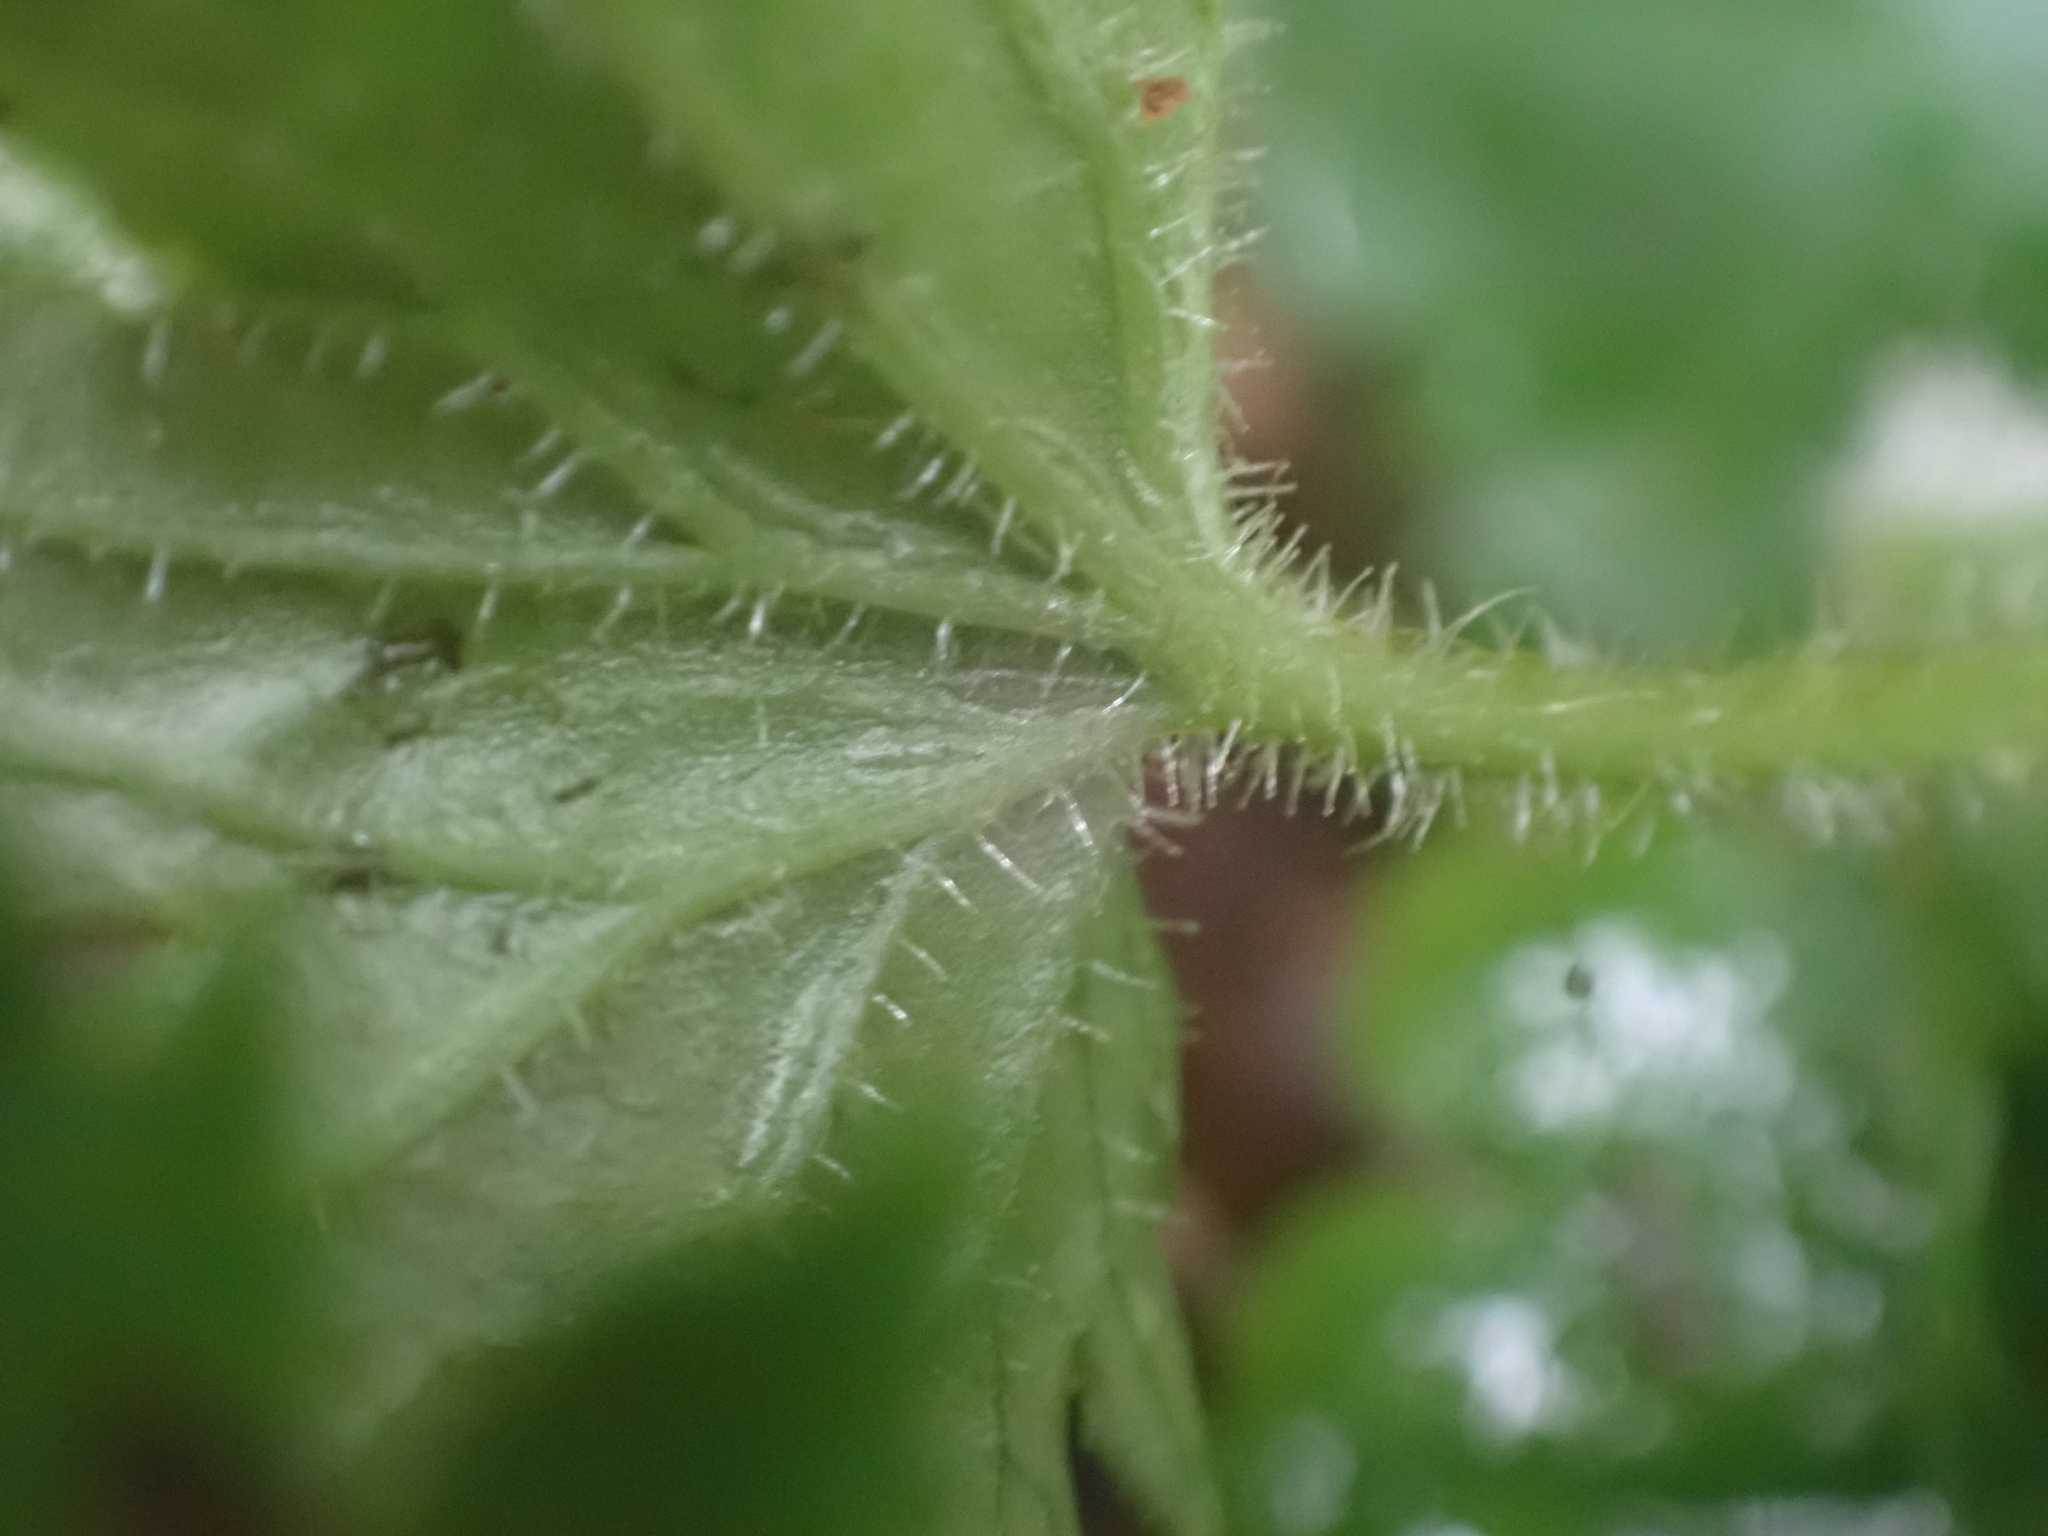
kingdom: Plantae
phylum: Tracheophyta
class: Magnoliopsida
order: Saxifragales
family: Saxifragaceae
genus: Boykinia
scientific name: Boykinia occidentalis
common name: Coast boykinia
